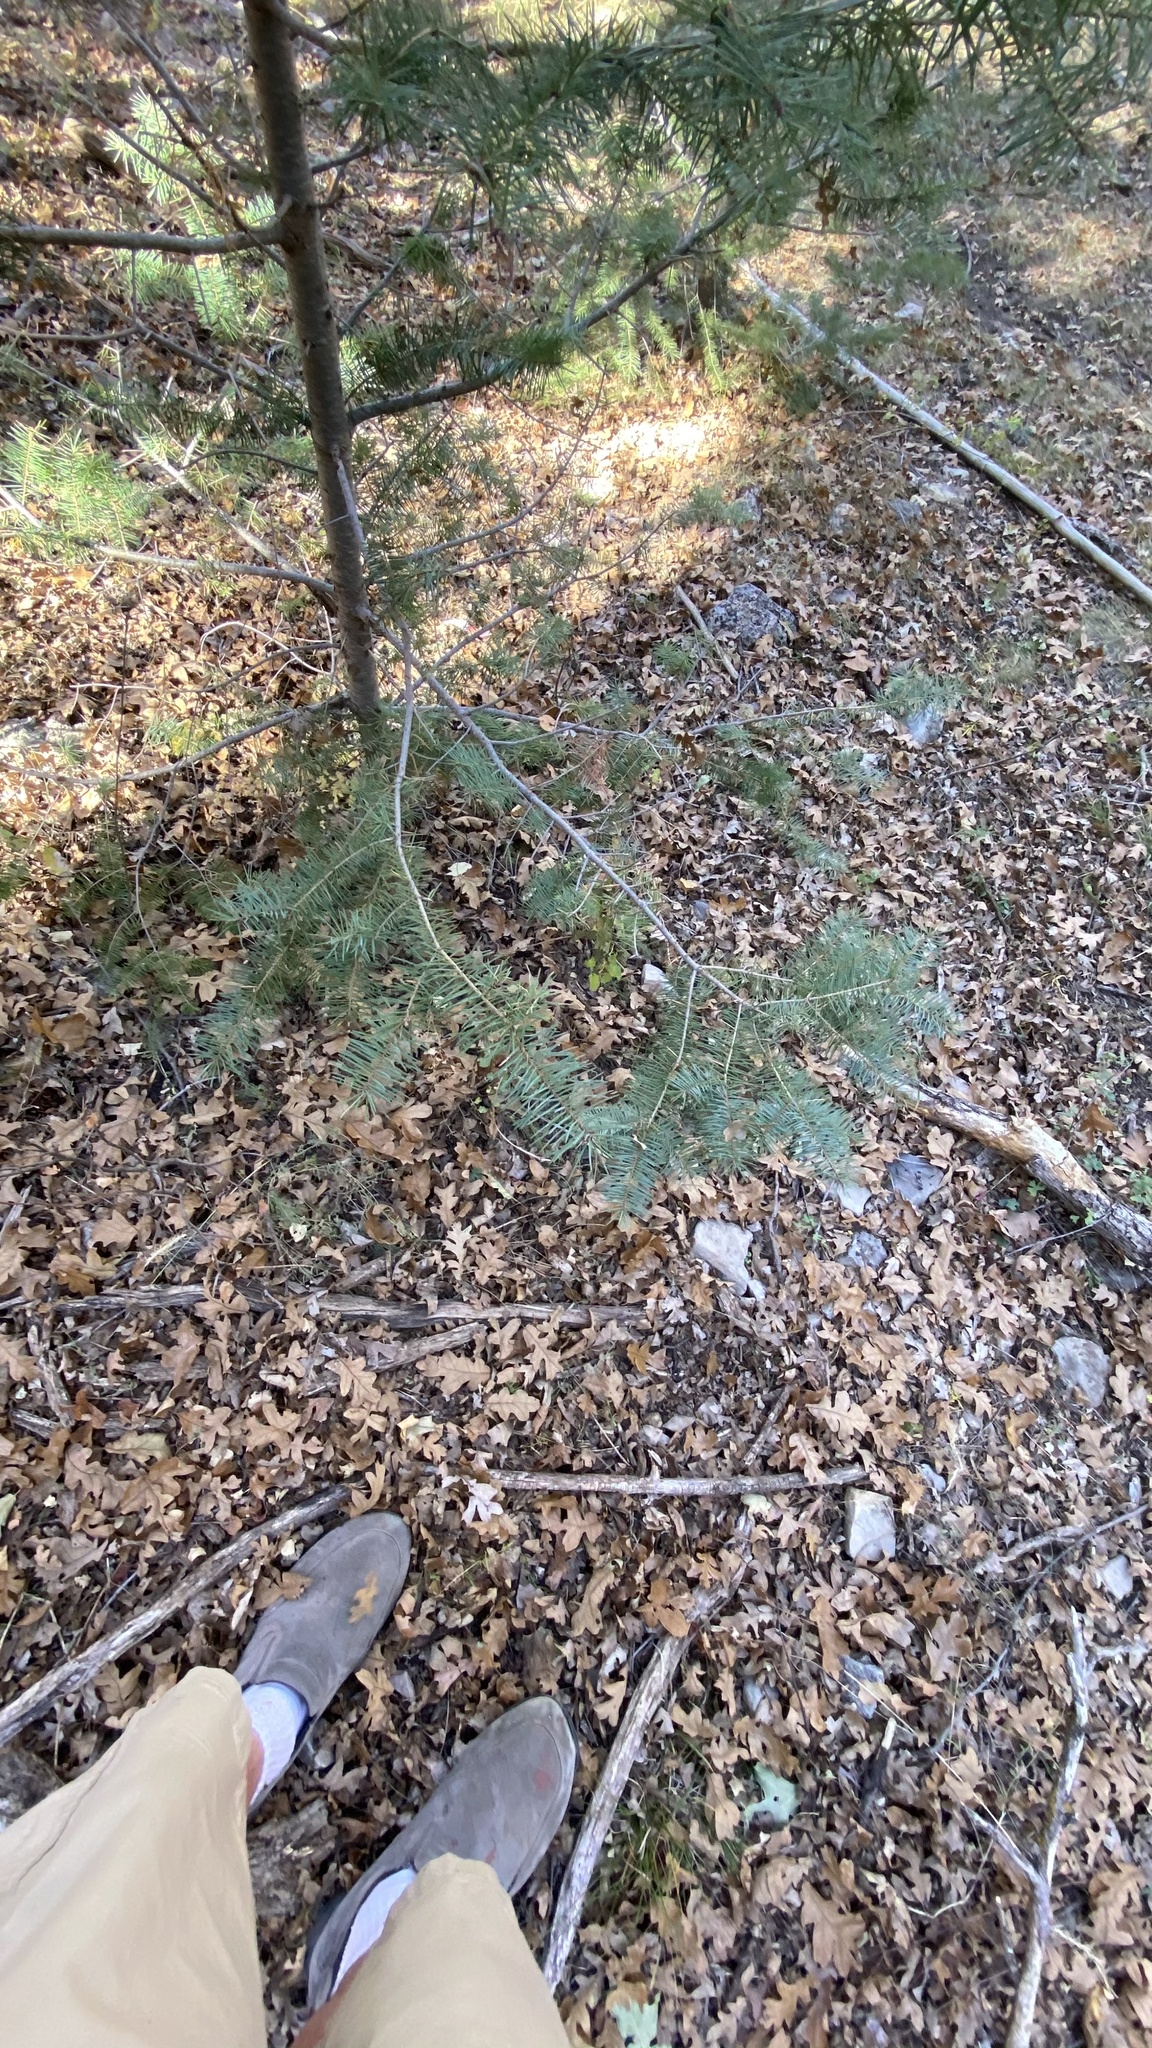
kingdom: Plantae
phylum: Tracheophyta
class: Pinopsida
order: Pinales
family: Pinaceae
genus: Abies
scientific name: Abies concolor
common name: Colorado fir
